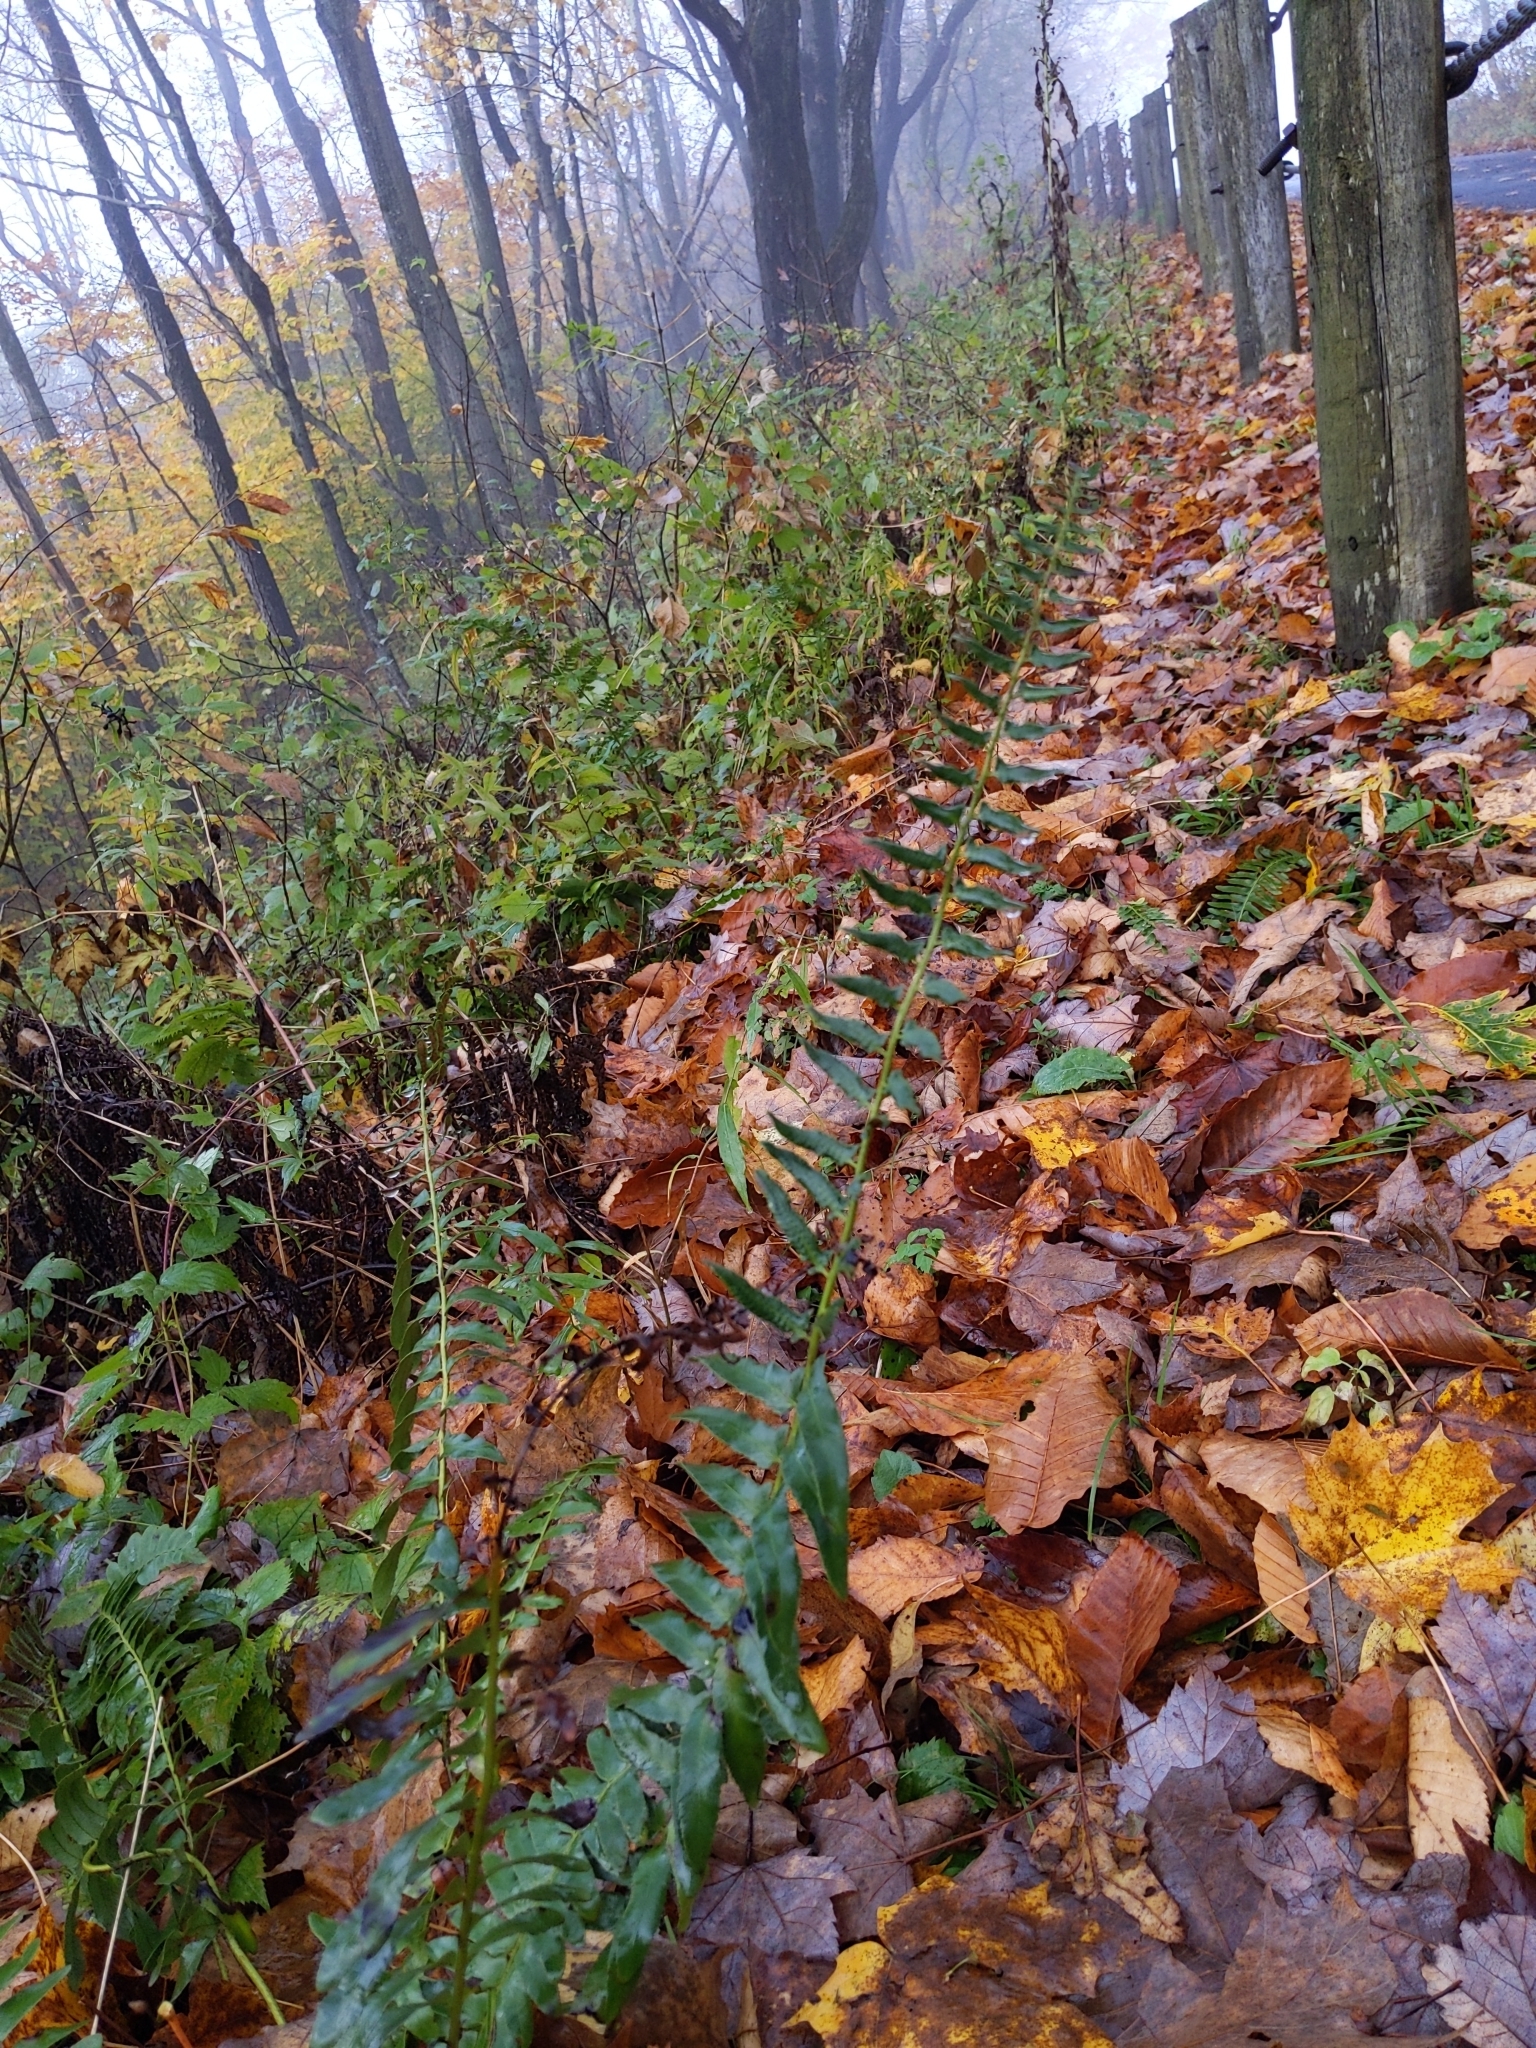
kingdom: Plantae
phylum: Tracheophyta
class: Polypodiopsida
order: Polypodiales
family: Dryopteridaceae
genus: Polystichum
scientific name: Polystichum acrostichoides
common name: Christmas fern
